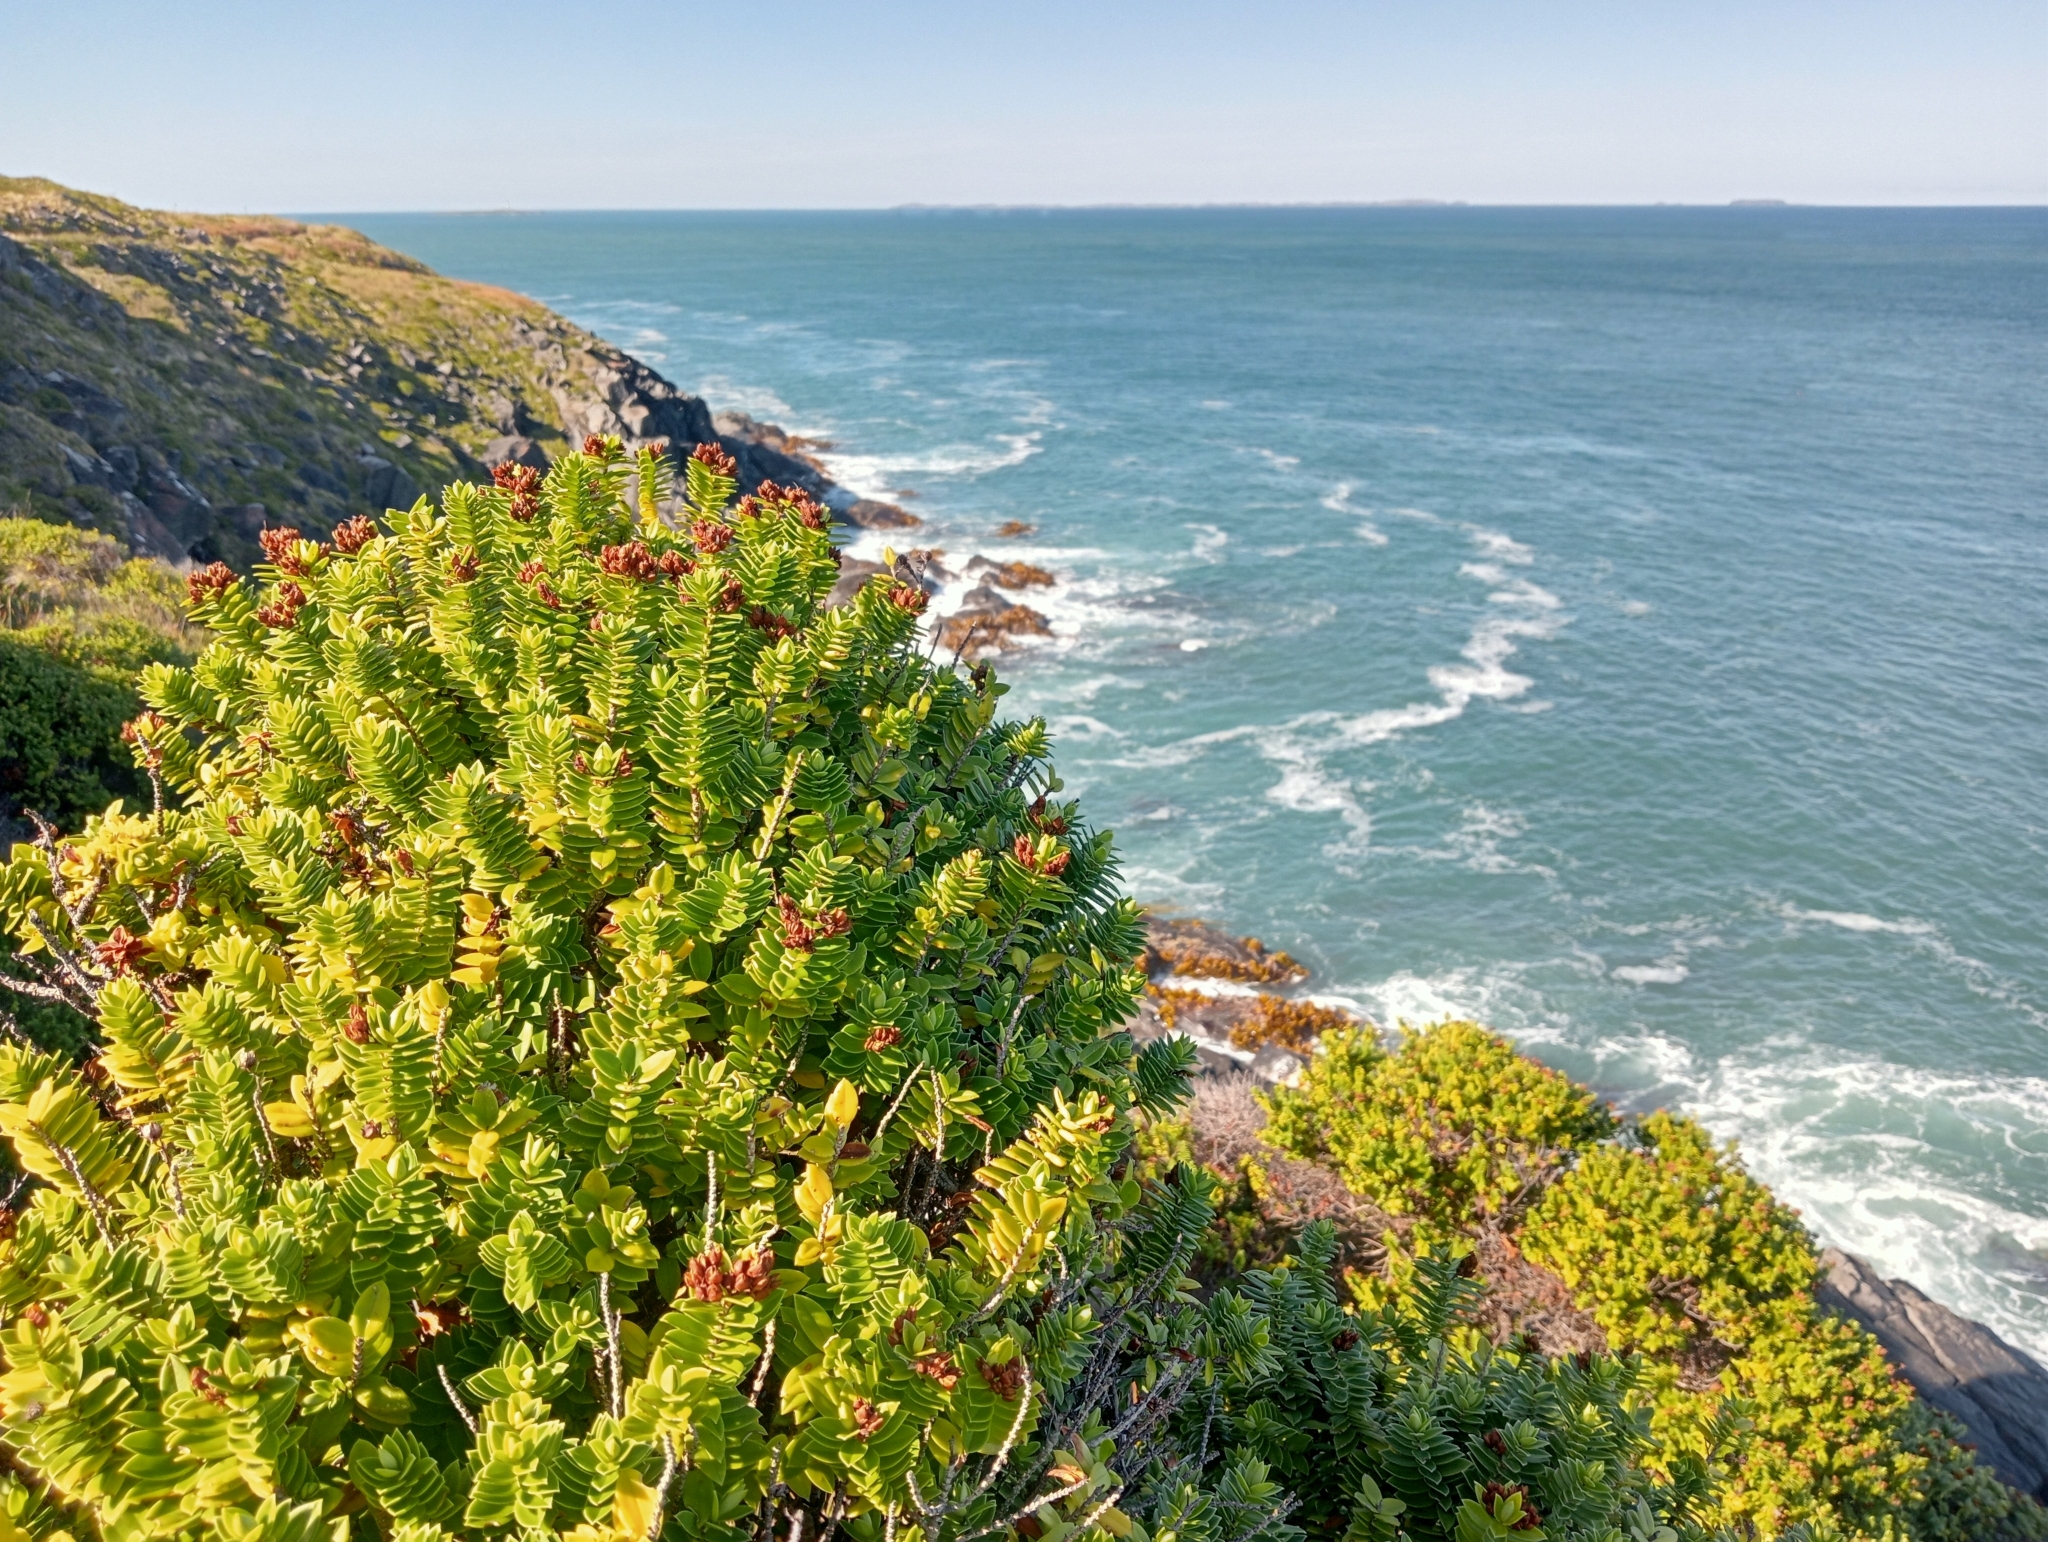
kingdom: Plantae
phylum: Tracheophyta
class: Magnoliopsida
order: Lamiales
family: Plantaginaceae
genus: Veronica
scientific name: Veronica elliptica
